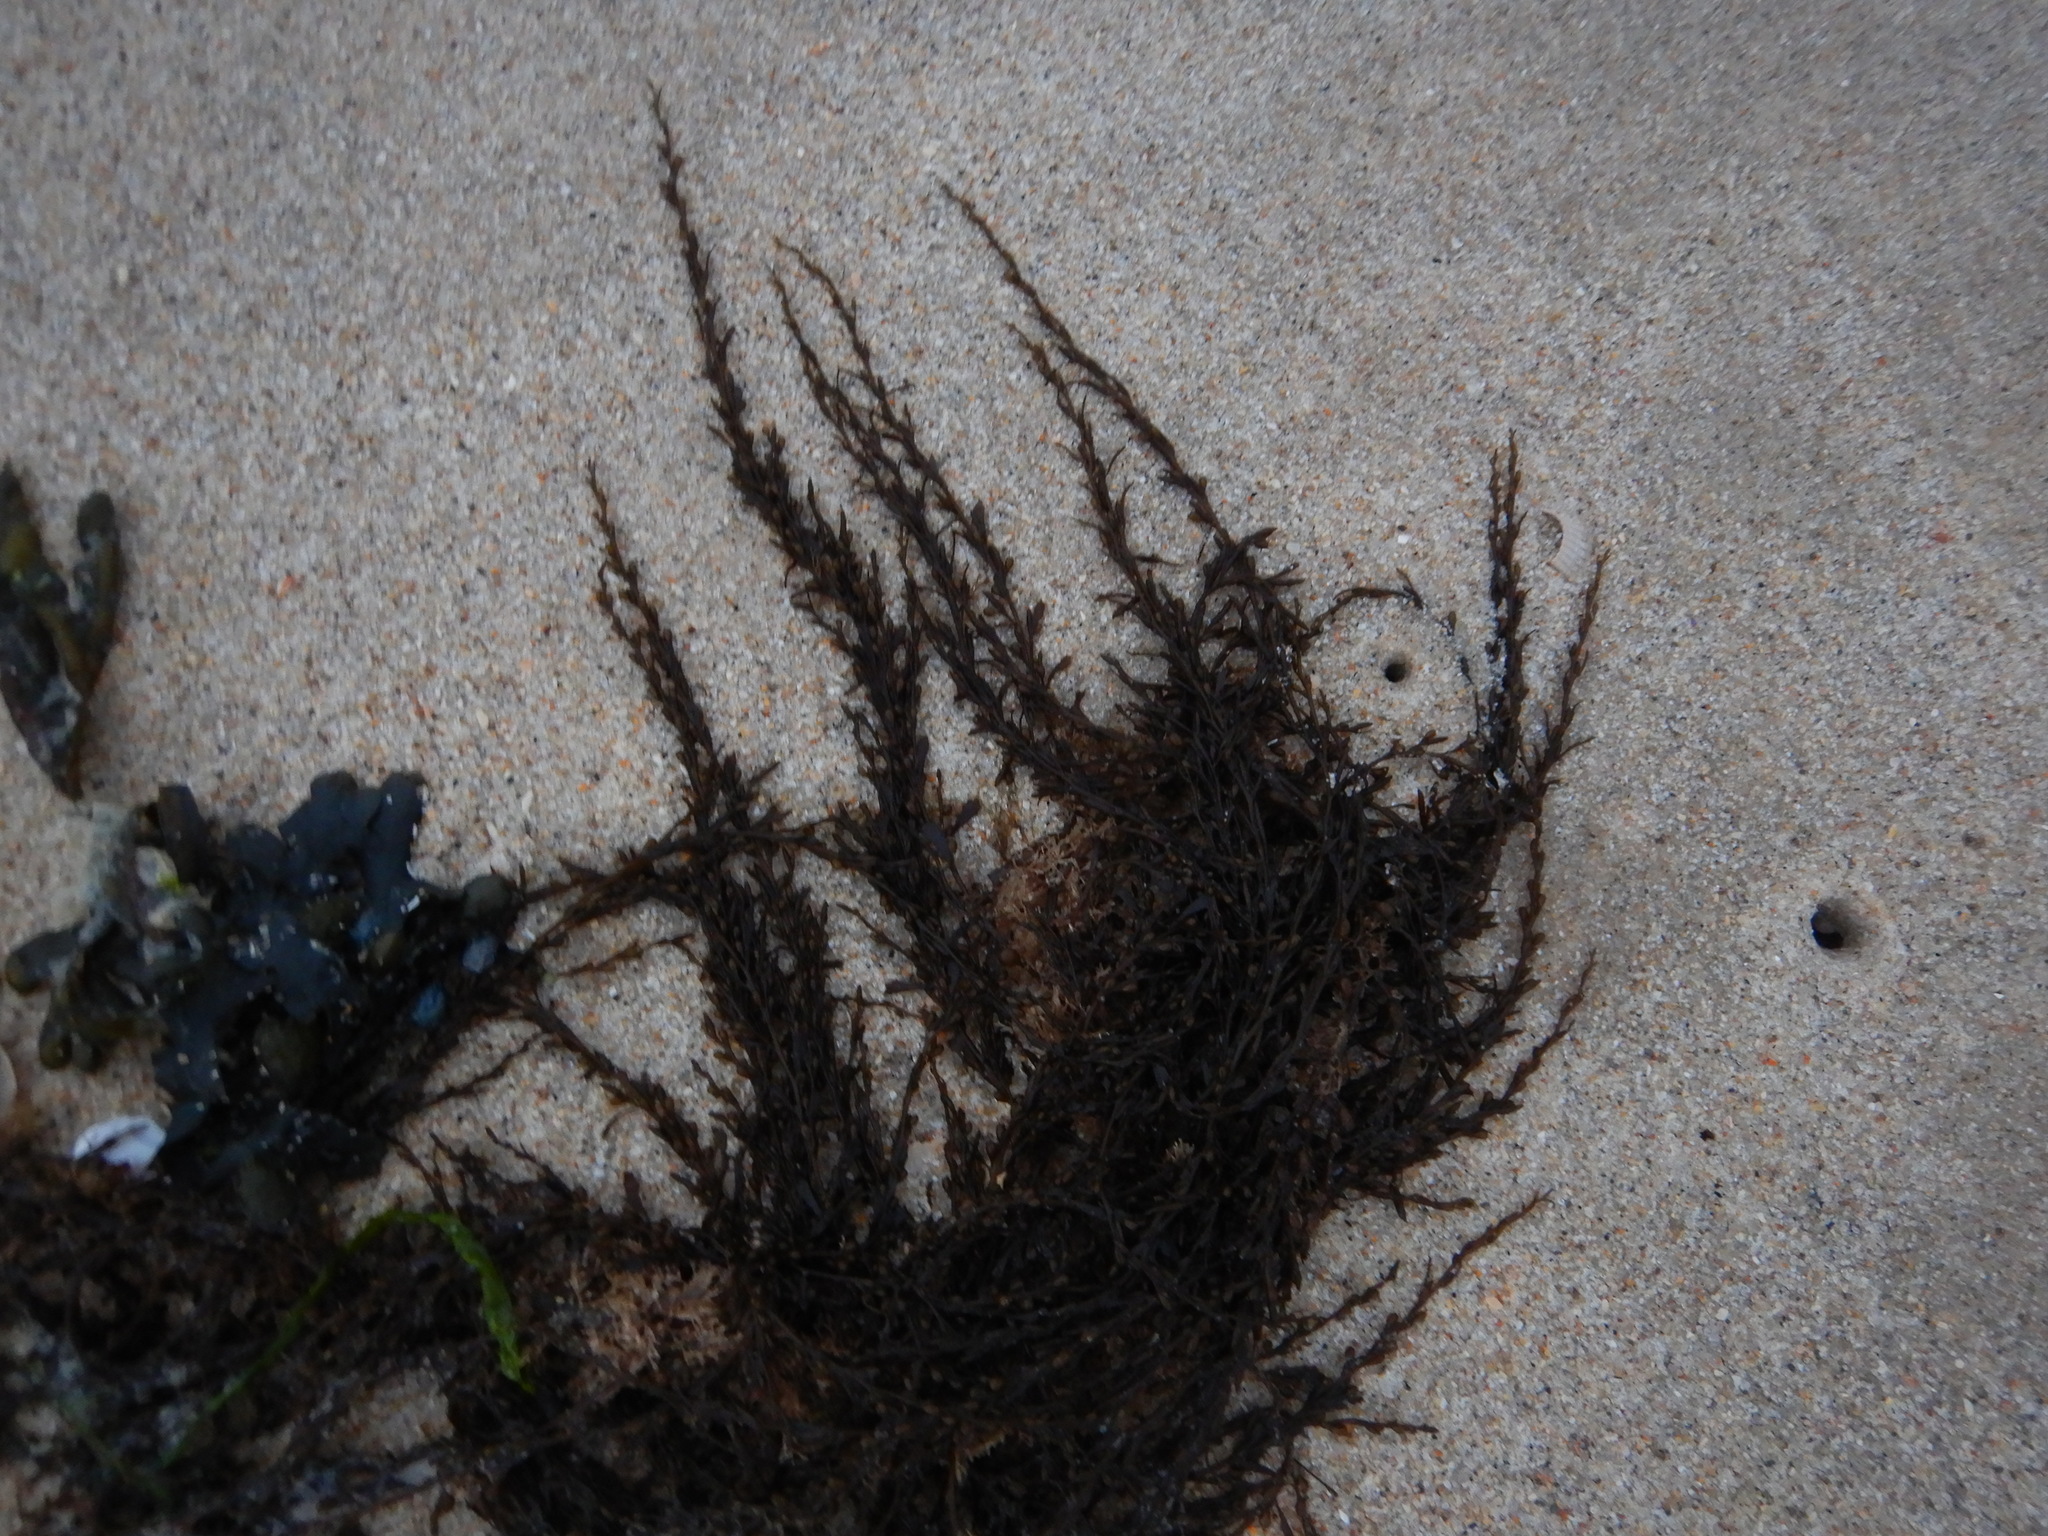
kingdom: Chromista
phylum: Ochrophyta
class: Phaeophyceae
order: Fucales
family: Sargassaceae
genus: Sargassum
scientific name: Sargassum muticum
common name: Japweed
